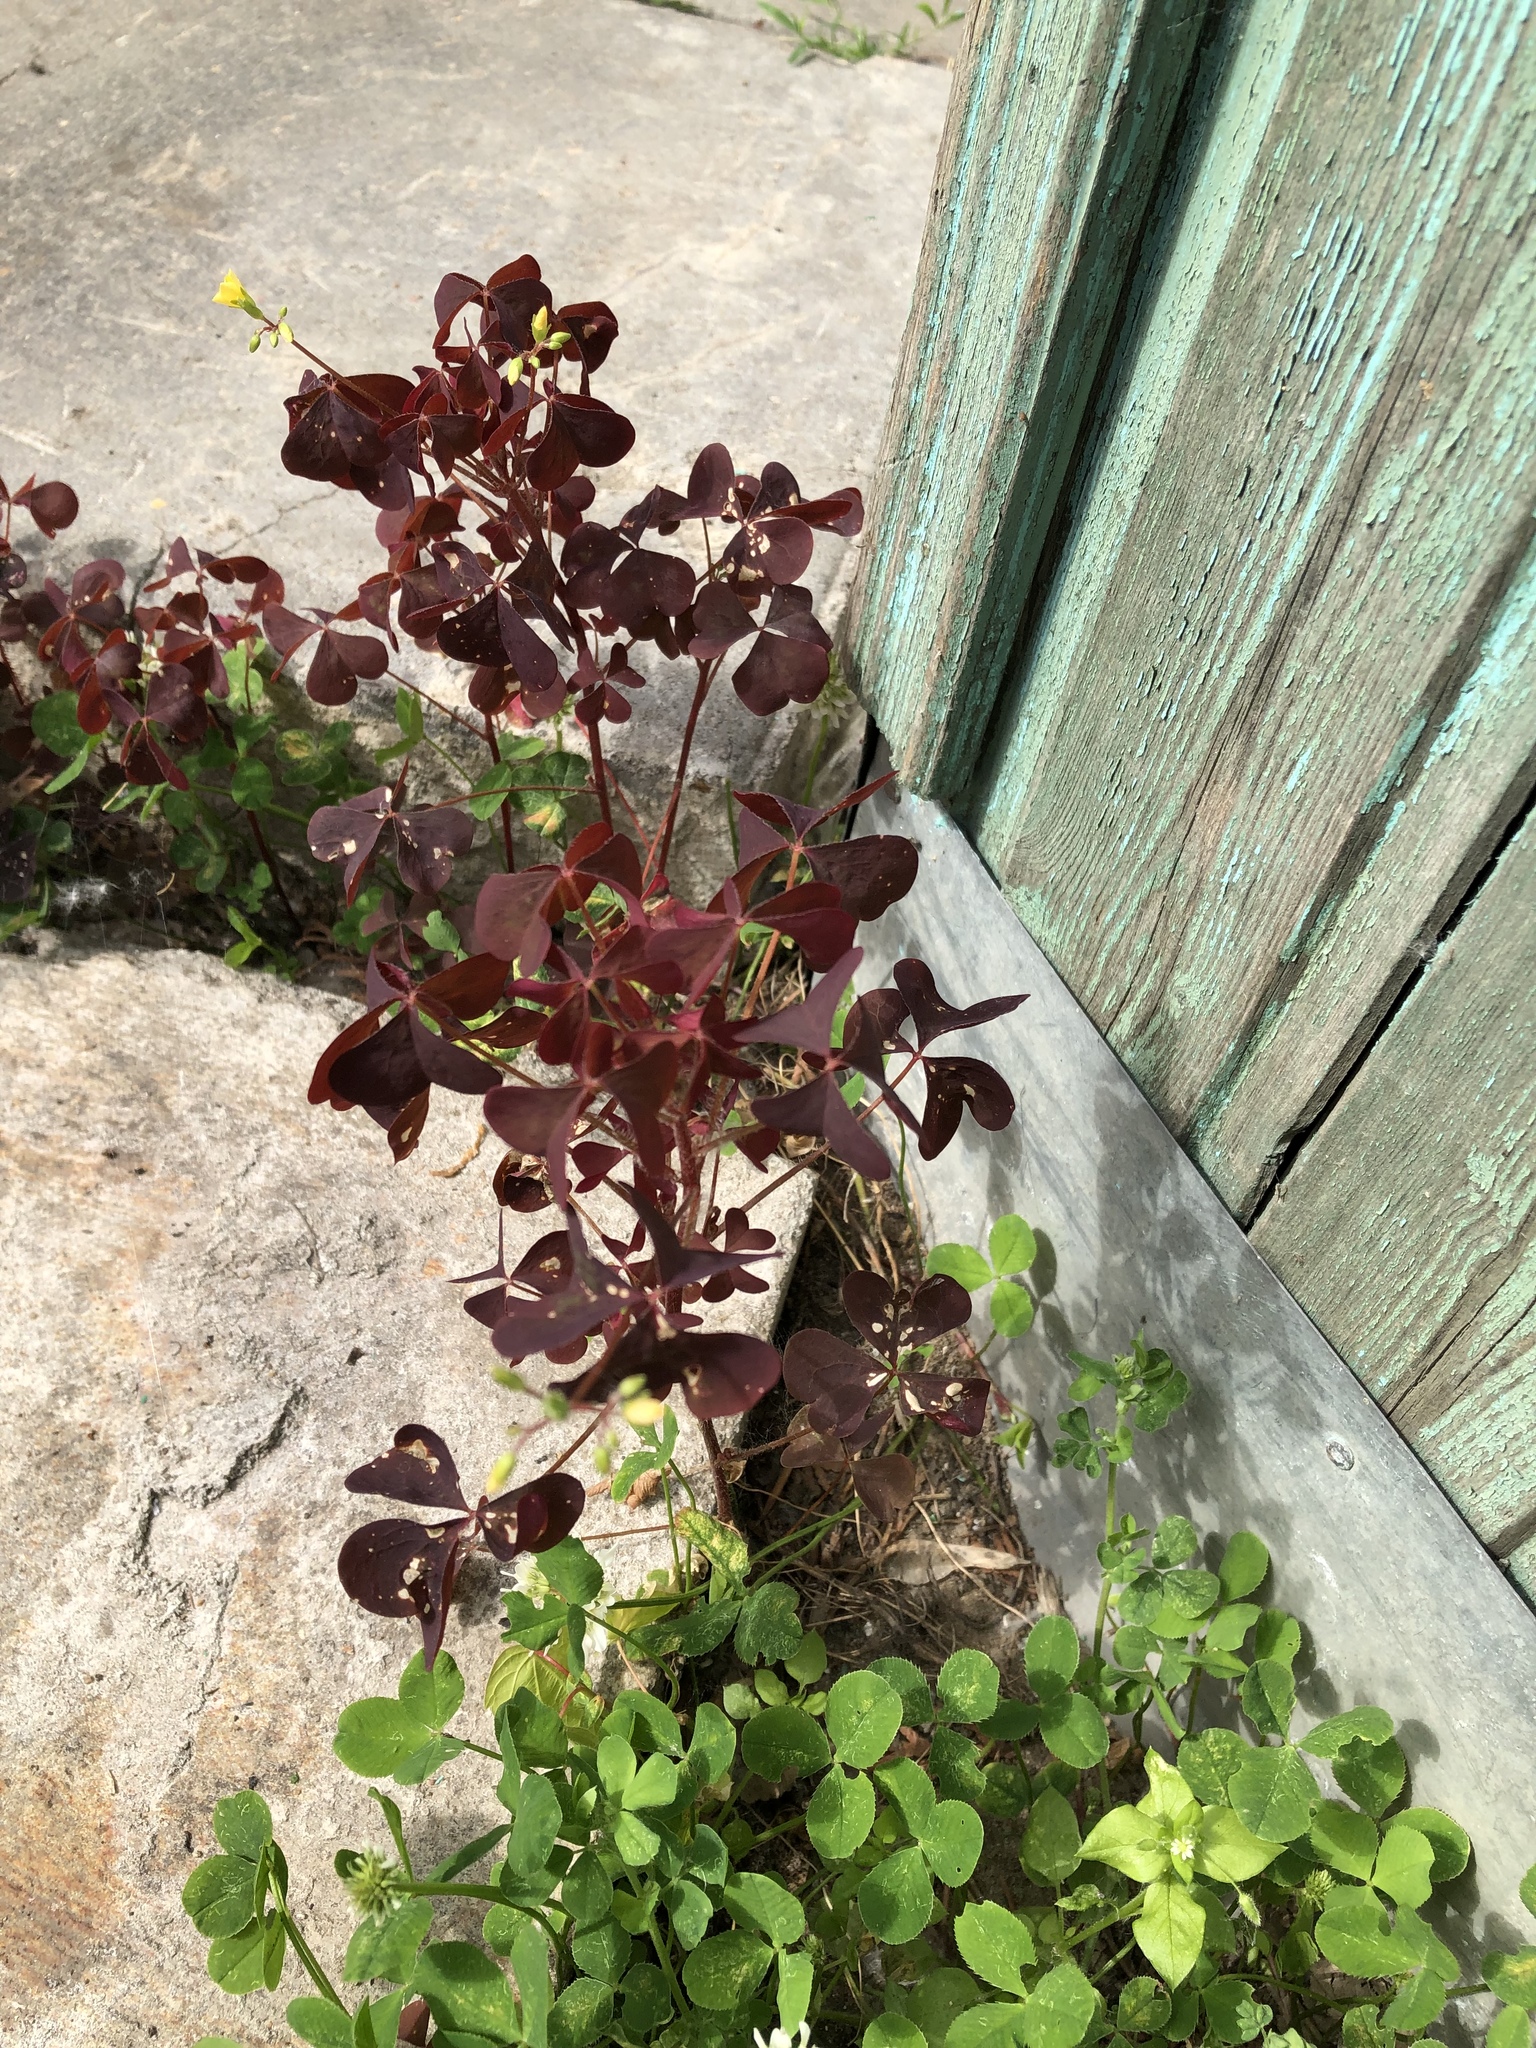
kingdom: Plantae
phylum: Tracheophyta
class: Magnoliopsida
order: Oxalidales
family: Oxalidaceae
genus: Oxalis
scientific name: Oxalis stricta
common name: Upright yellow-sorrel
